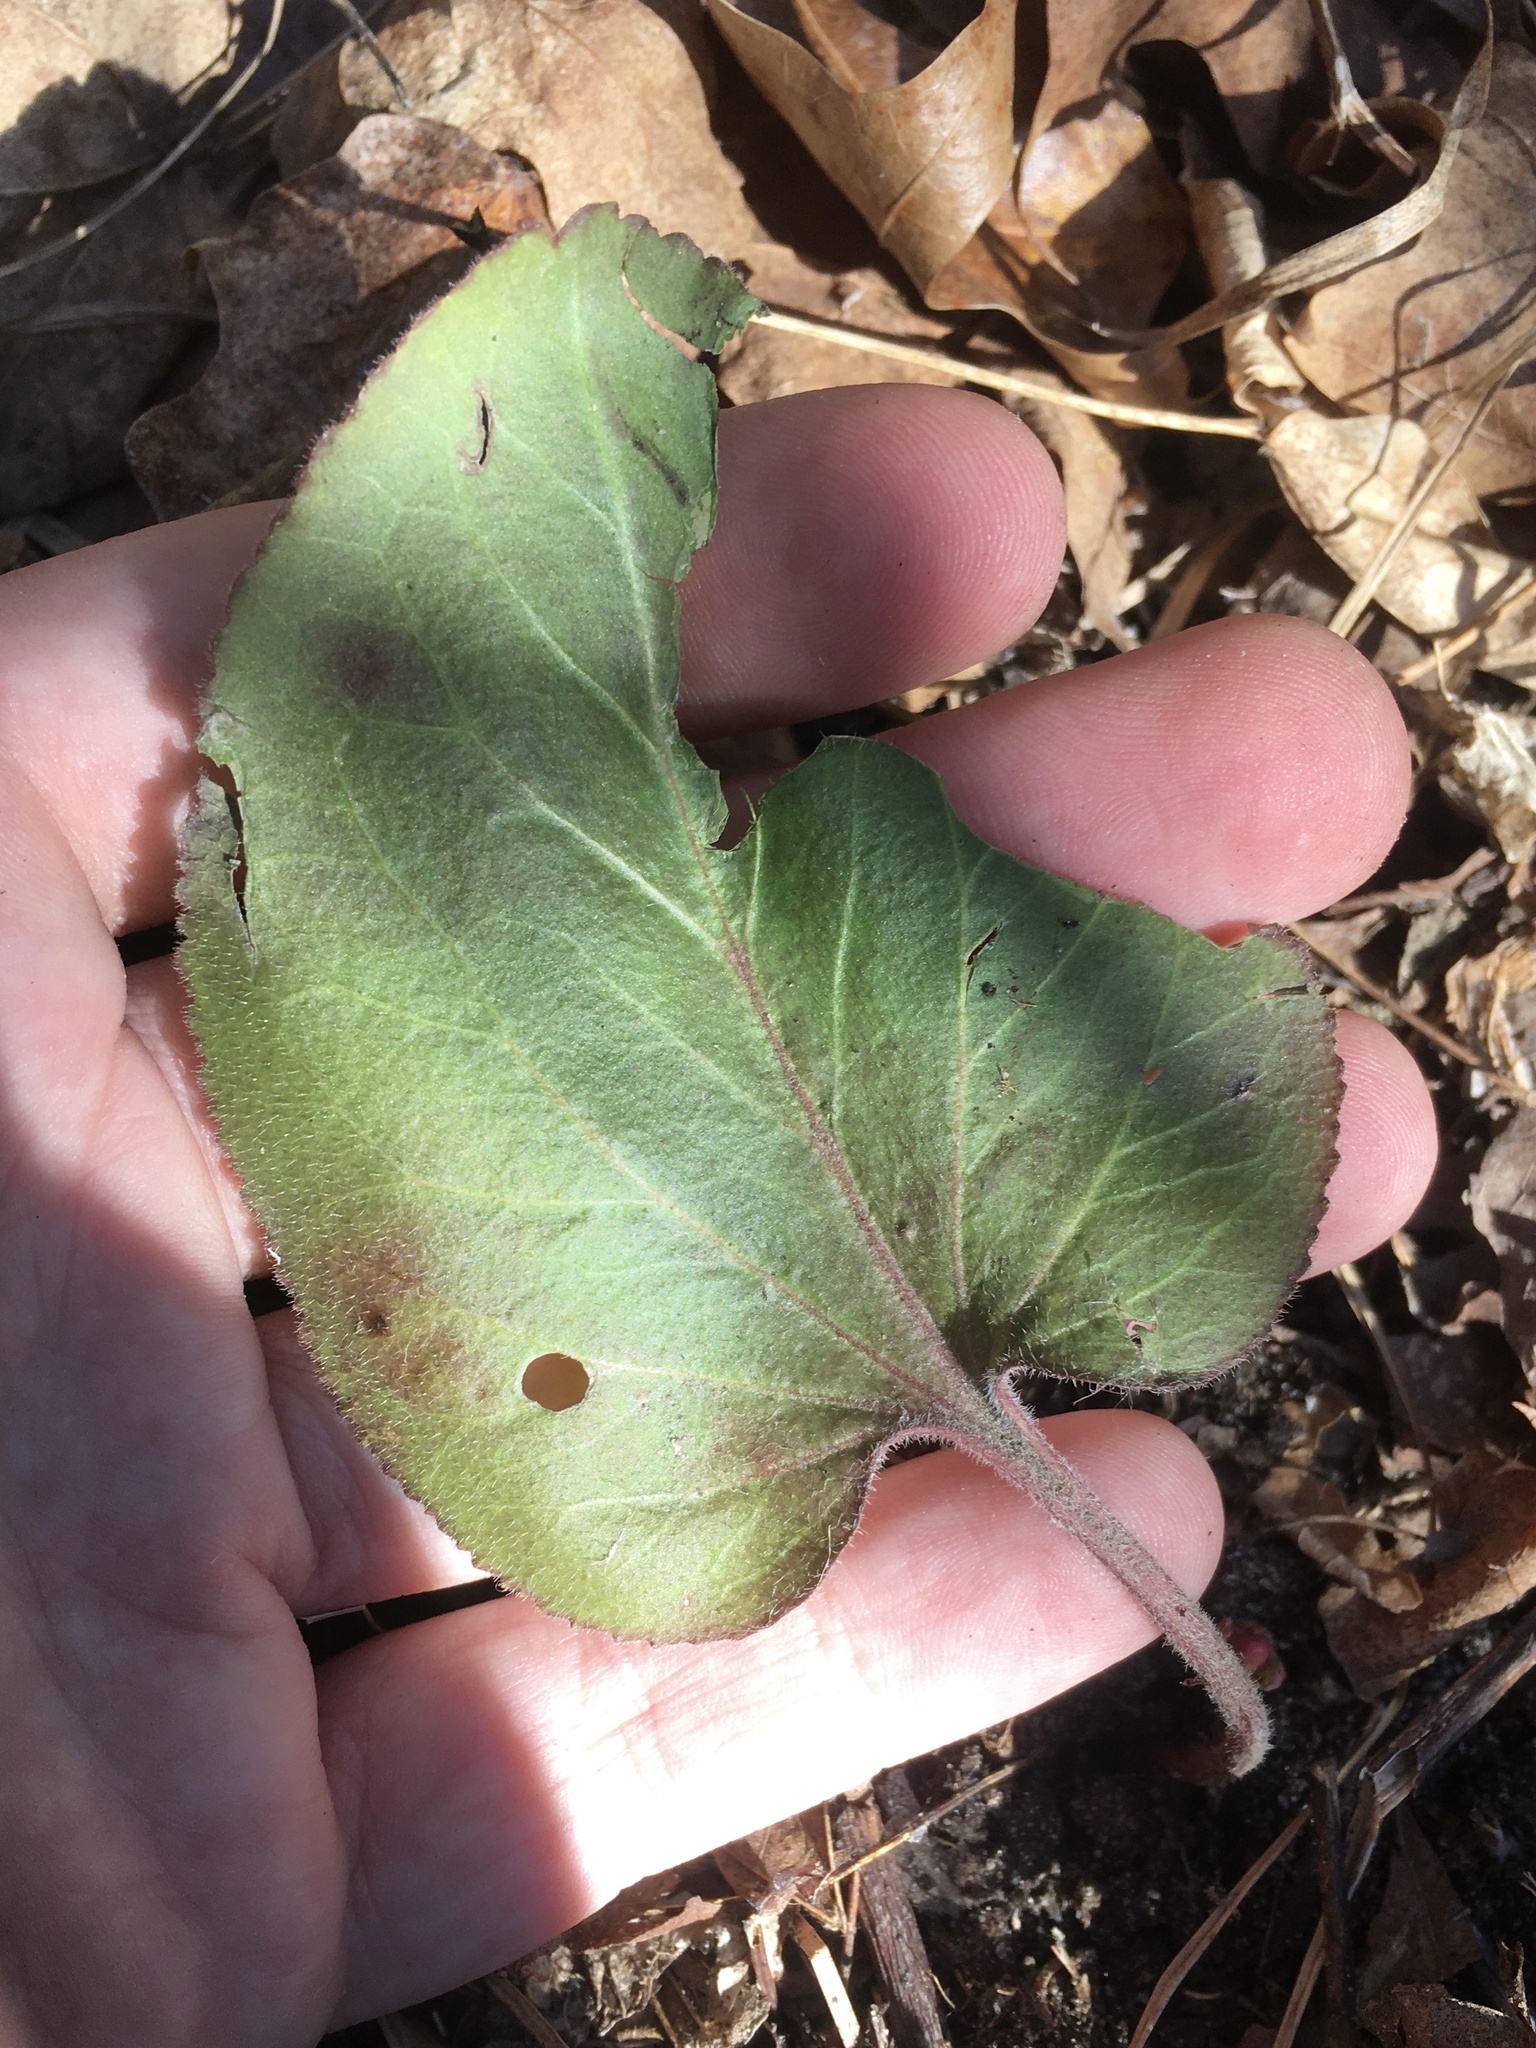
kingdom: Plantae
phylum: Tracheophyta
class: Magnoliopsida
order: Lamiales
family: Plantaginaceae
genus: Synthyris
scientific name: Synthyris bullii
